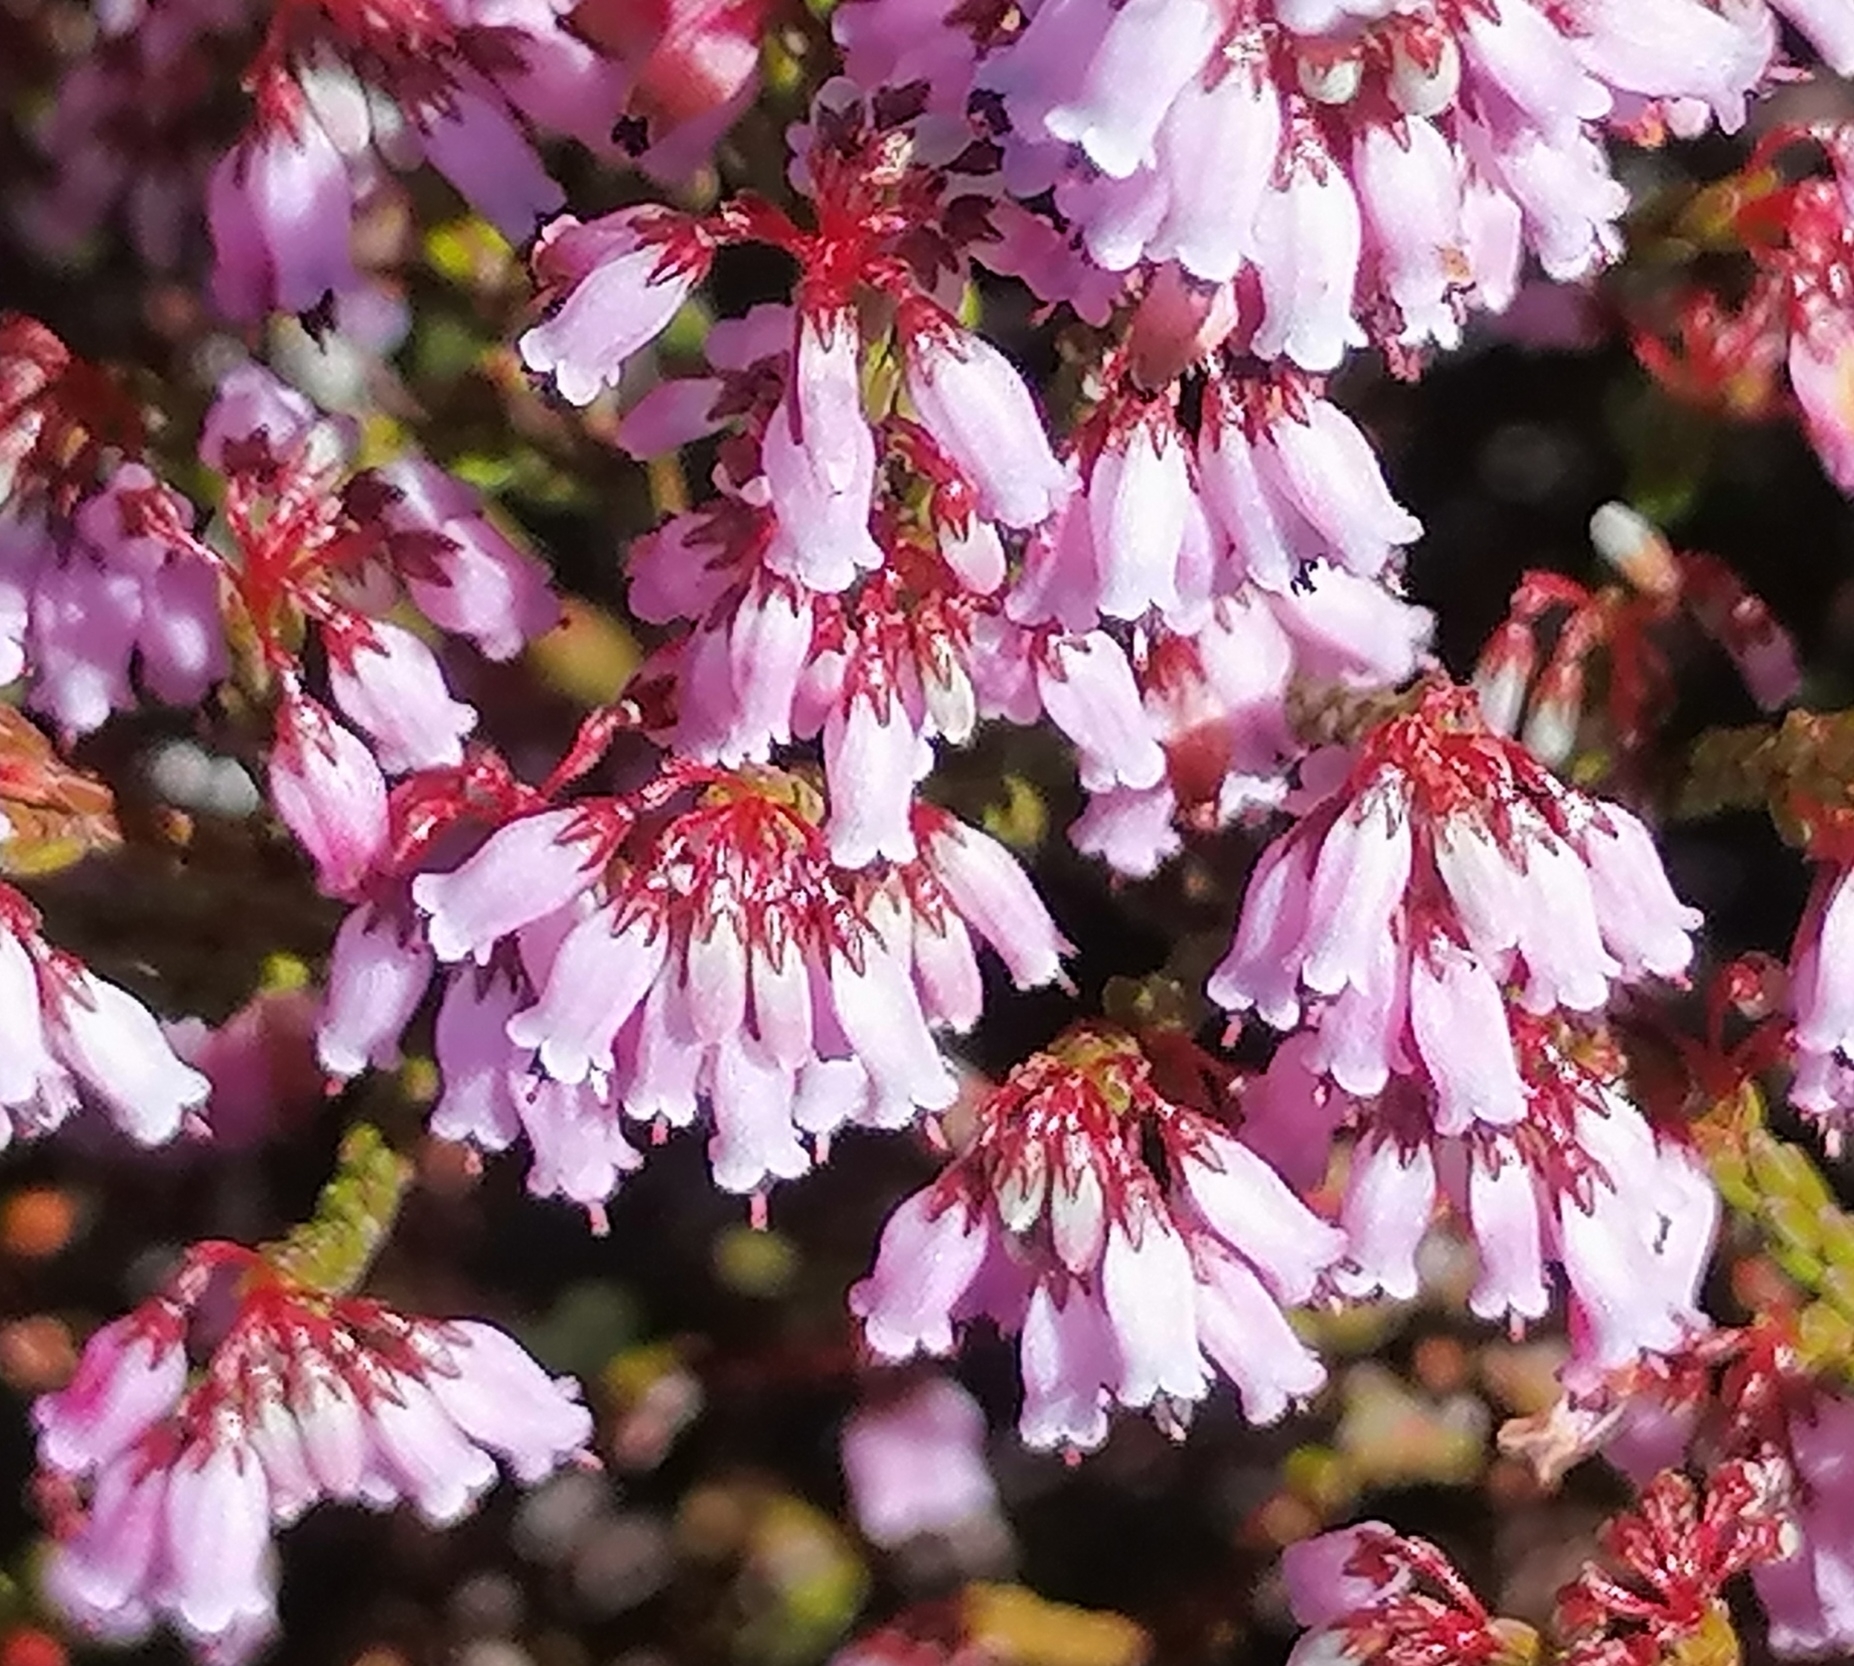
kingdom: Plantae
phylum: Tracheophyta
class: Magnoliopsida
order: Ericales
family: Ericaceae
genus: Erica
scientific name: Erica equisetifolia
